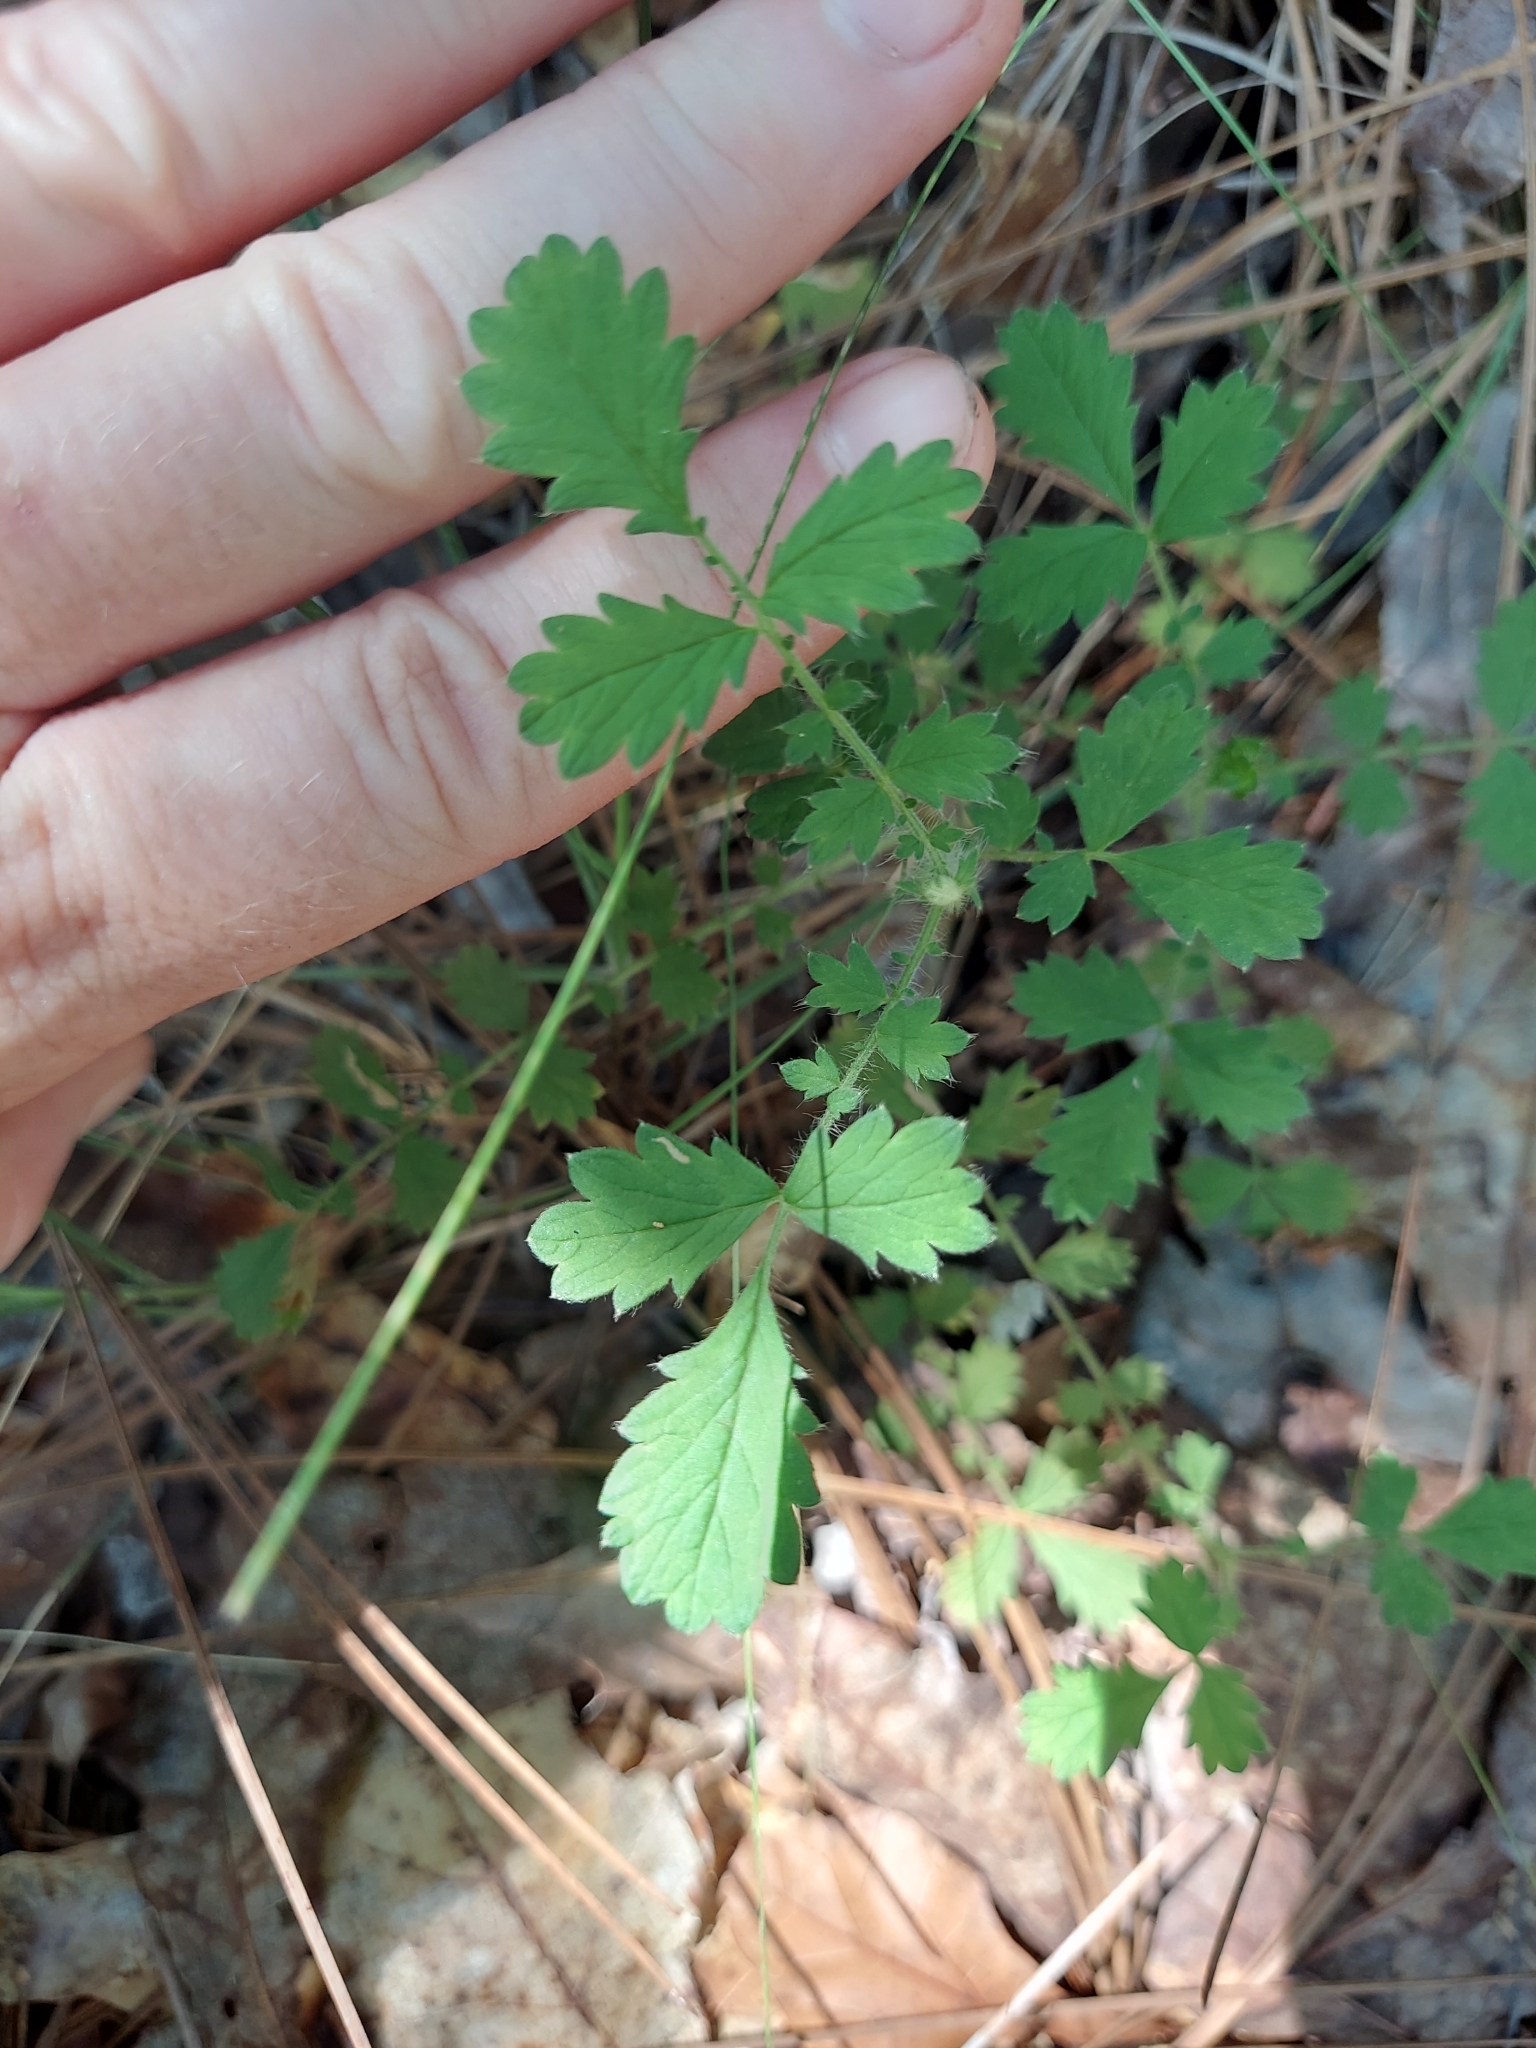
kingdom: Plantae
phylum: Tracheophyta
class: Magnoliopsida
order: Rosales
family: Rosaceae
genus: Agrimonia
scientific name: Agrimonia incisa
